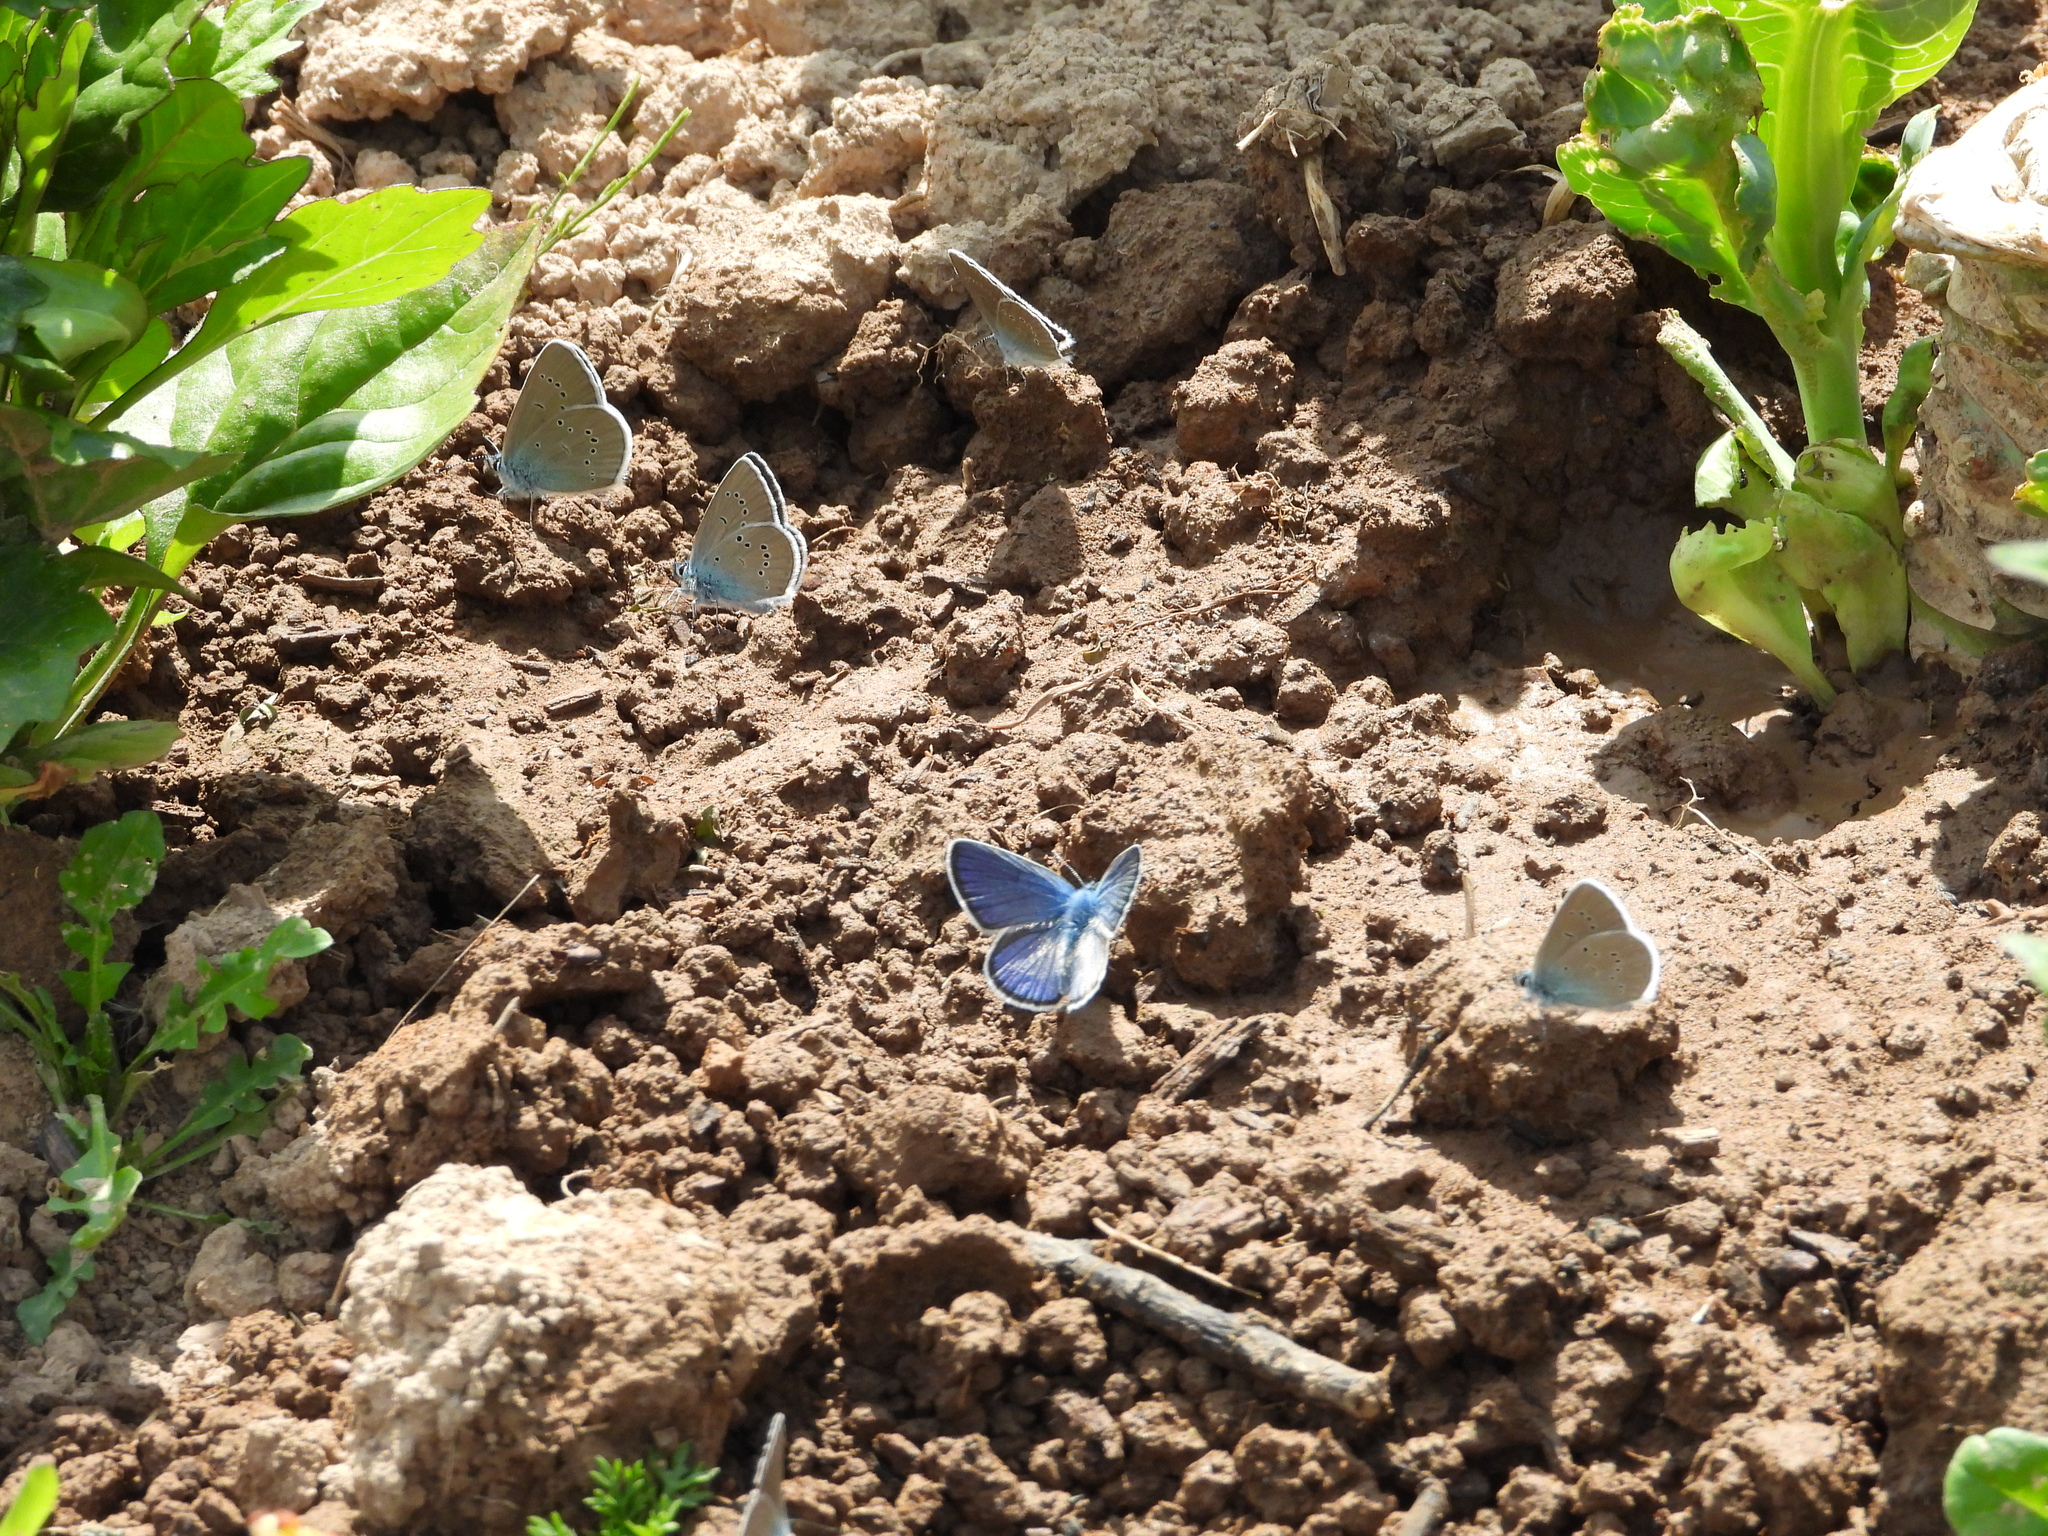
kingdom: Animalia
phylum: Arthropoda
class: Insecta
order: Lepidoptera
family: Lycaenidae
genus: Cyaniris
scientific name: Cyaniris semiargus
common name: Mazarine blue
